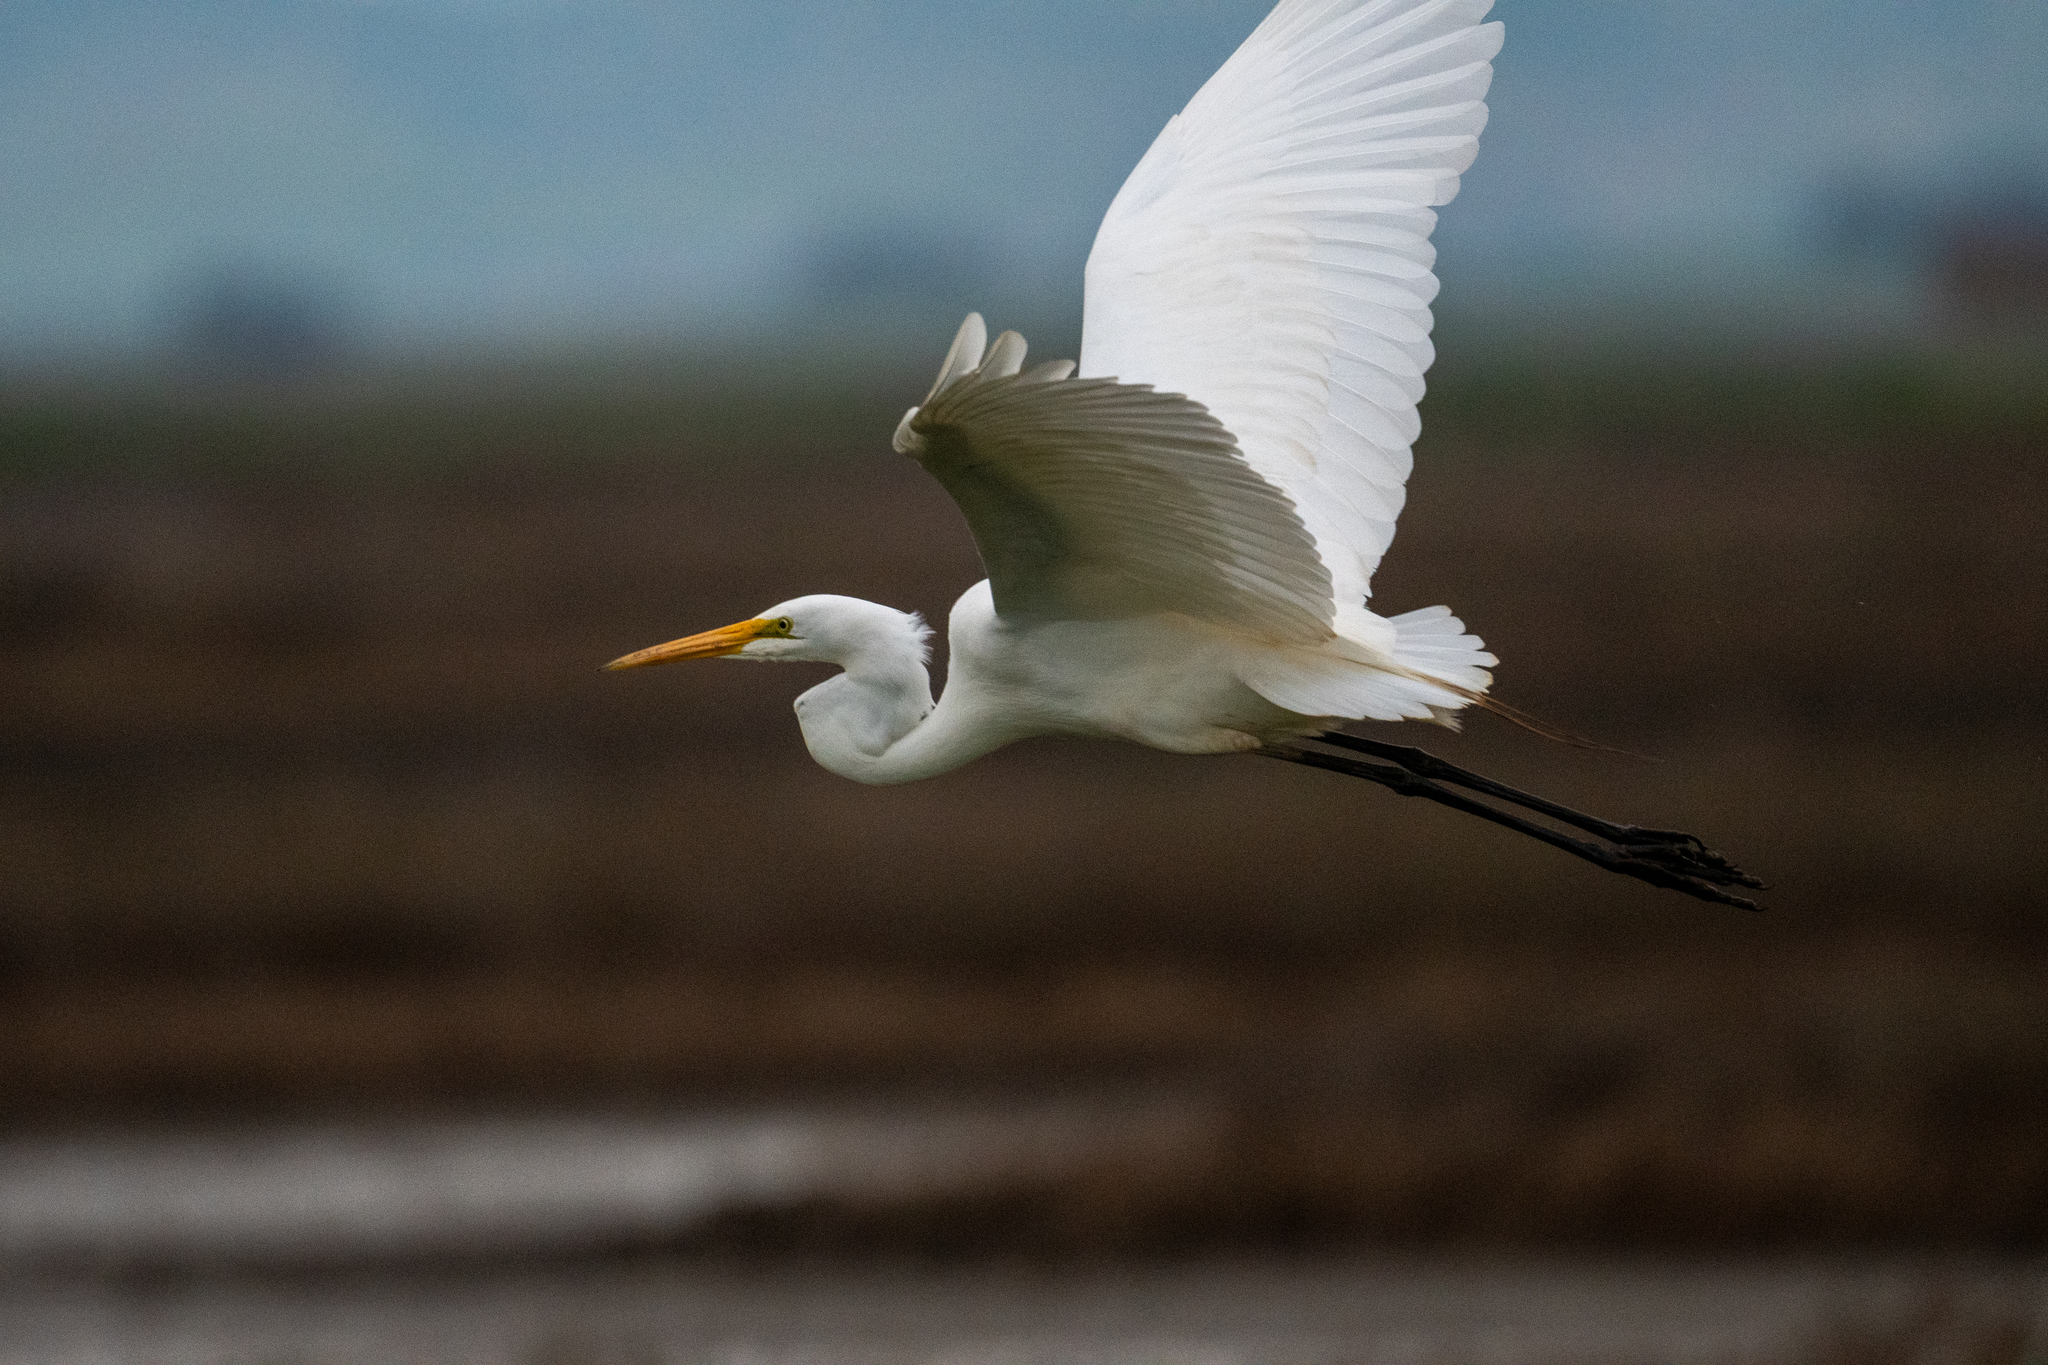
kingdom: Animalia
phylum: Chordata
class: Aves
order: Pelecaniformes
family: Ardeidae
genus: Ardea
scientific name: Ardea alba
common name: Great egret
